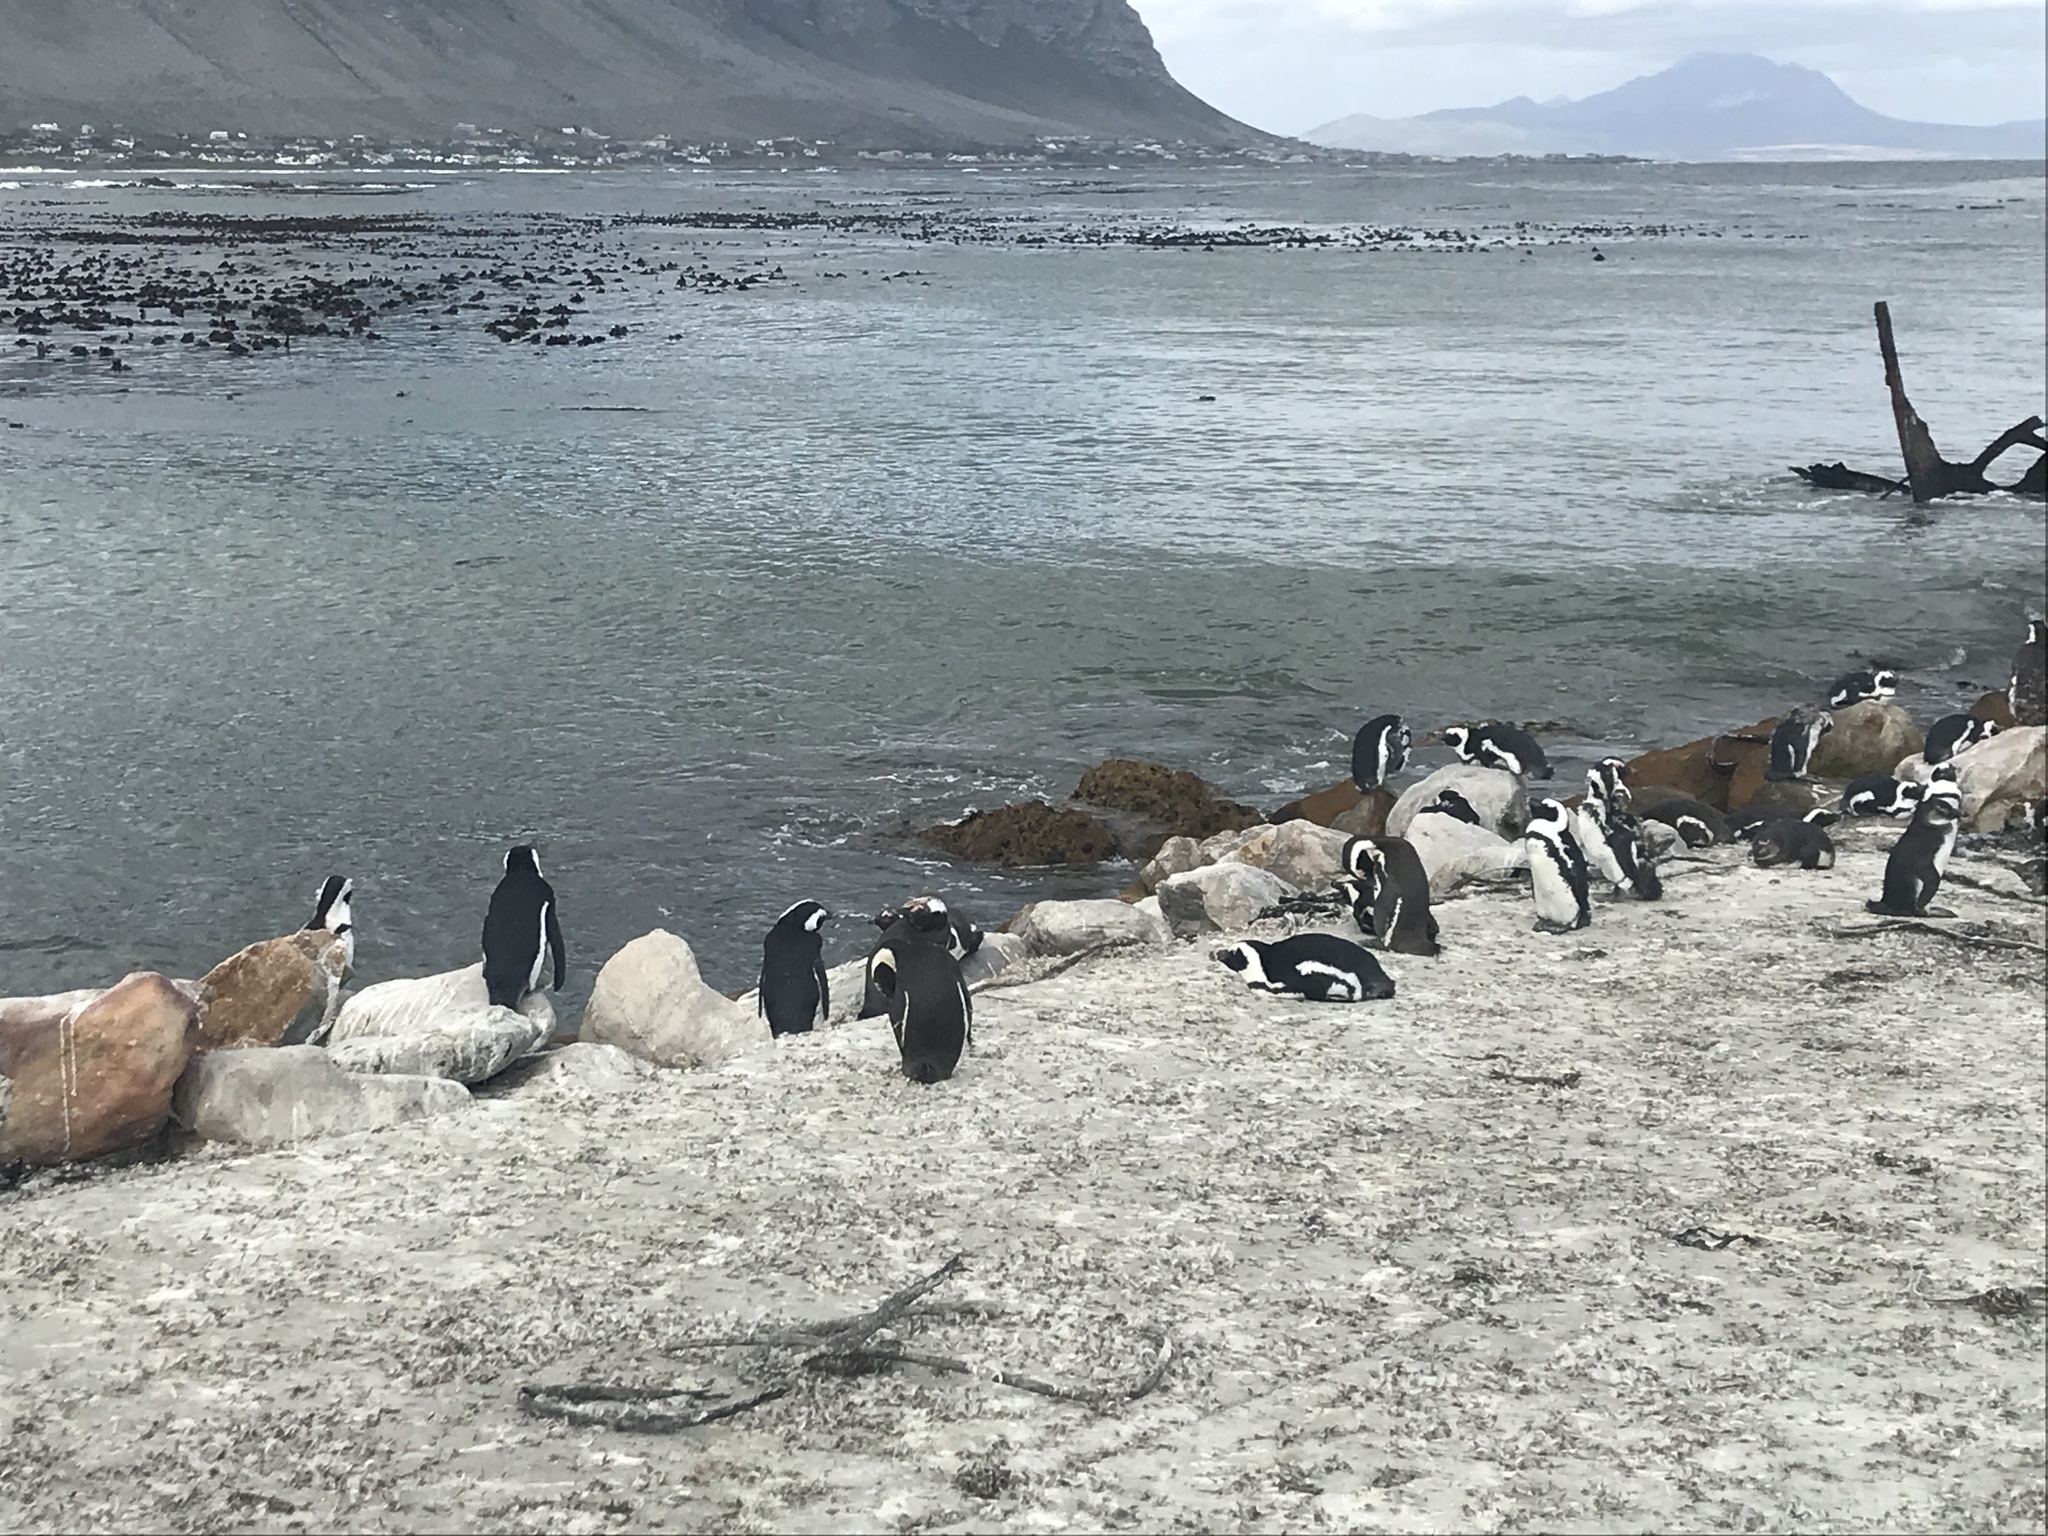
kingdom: Animalia
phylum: Chordata
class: Aves
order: Sphenisciformes
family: Spheniscidae
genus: Spheniscus
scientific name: Spheniscus demersus
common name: African penguin
